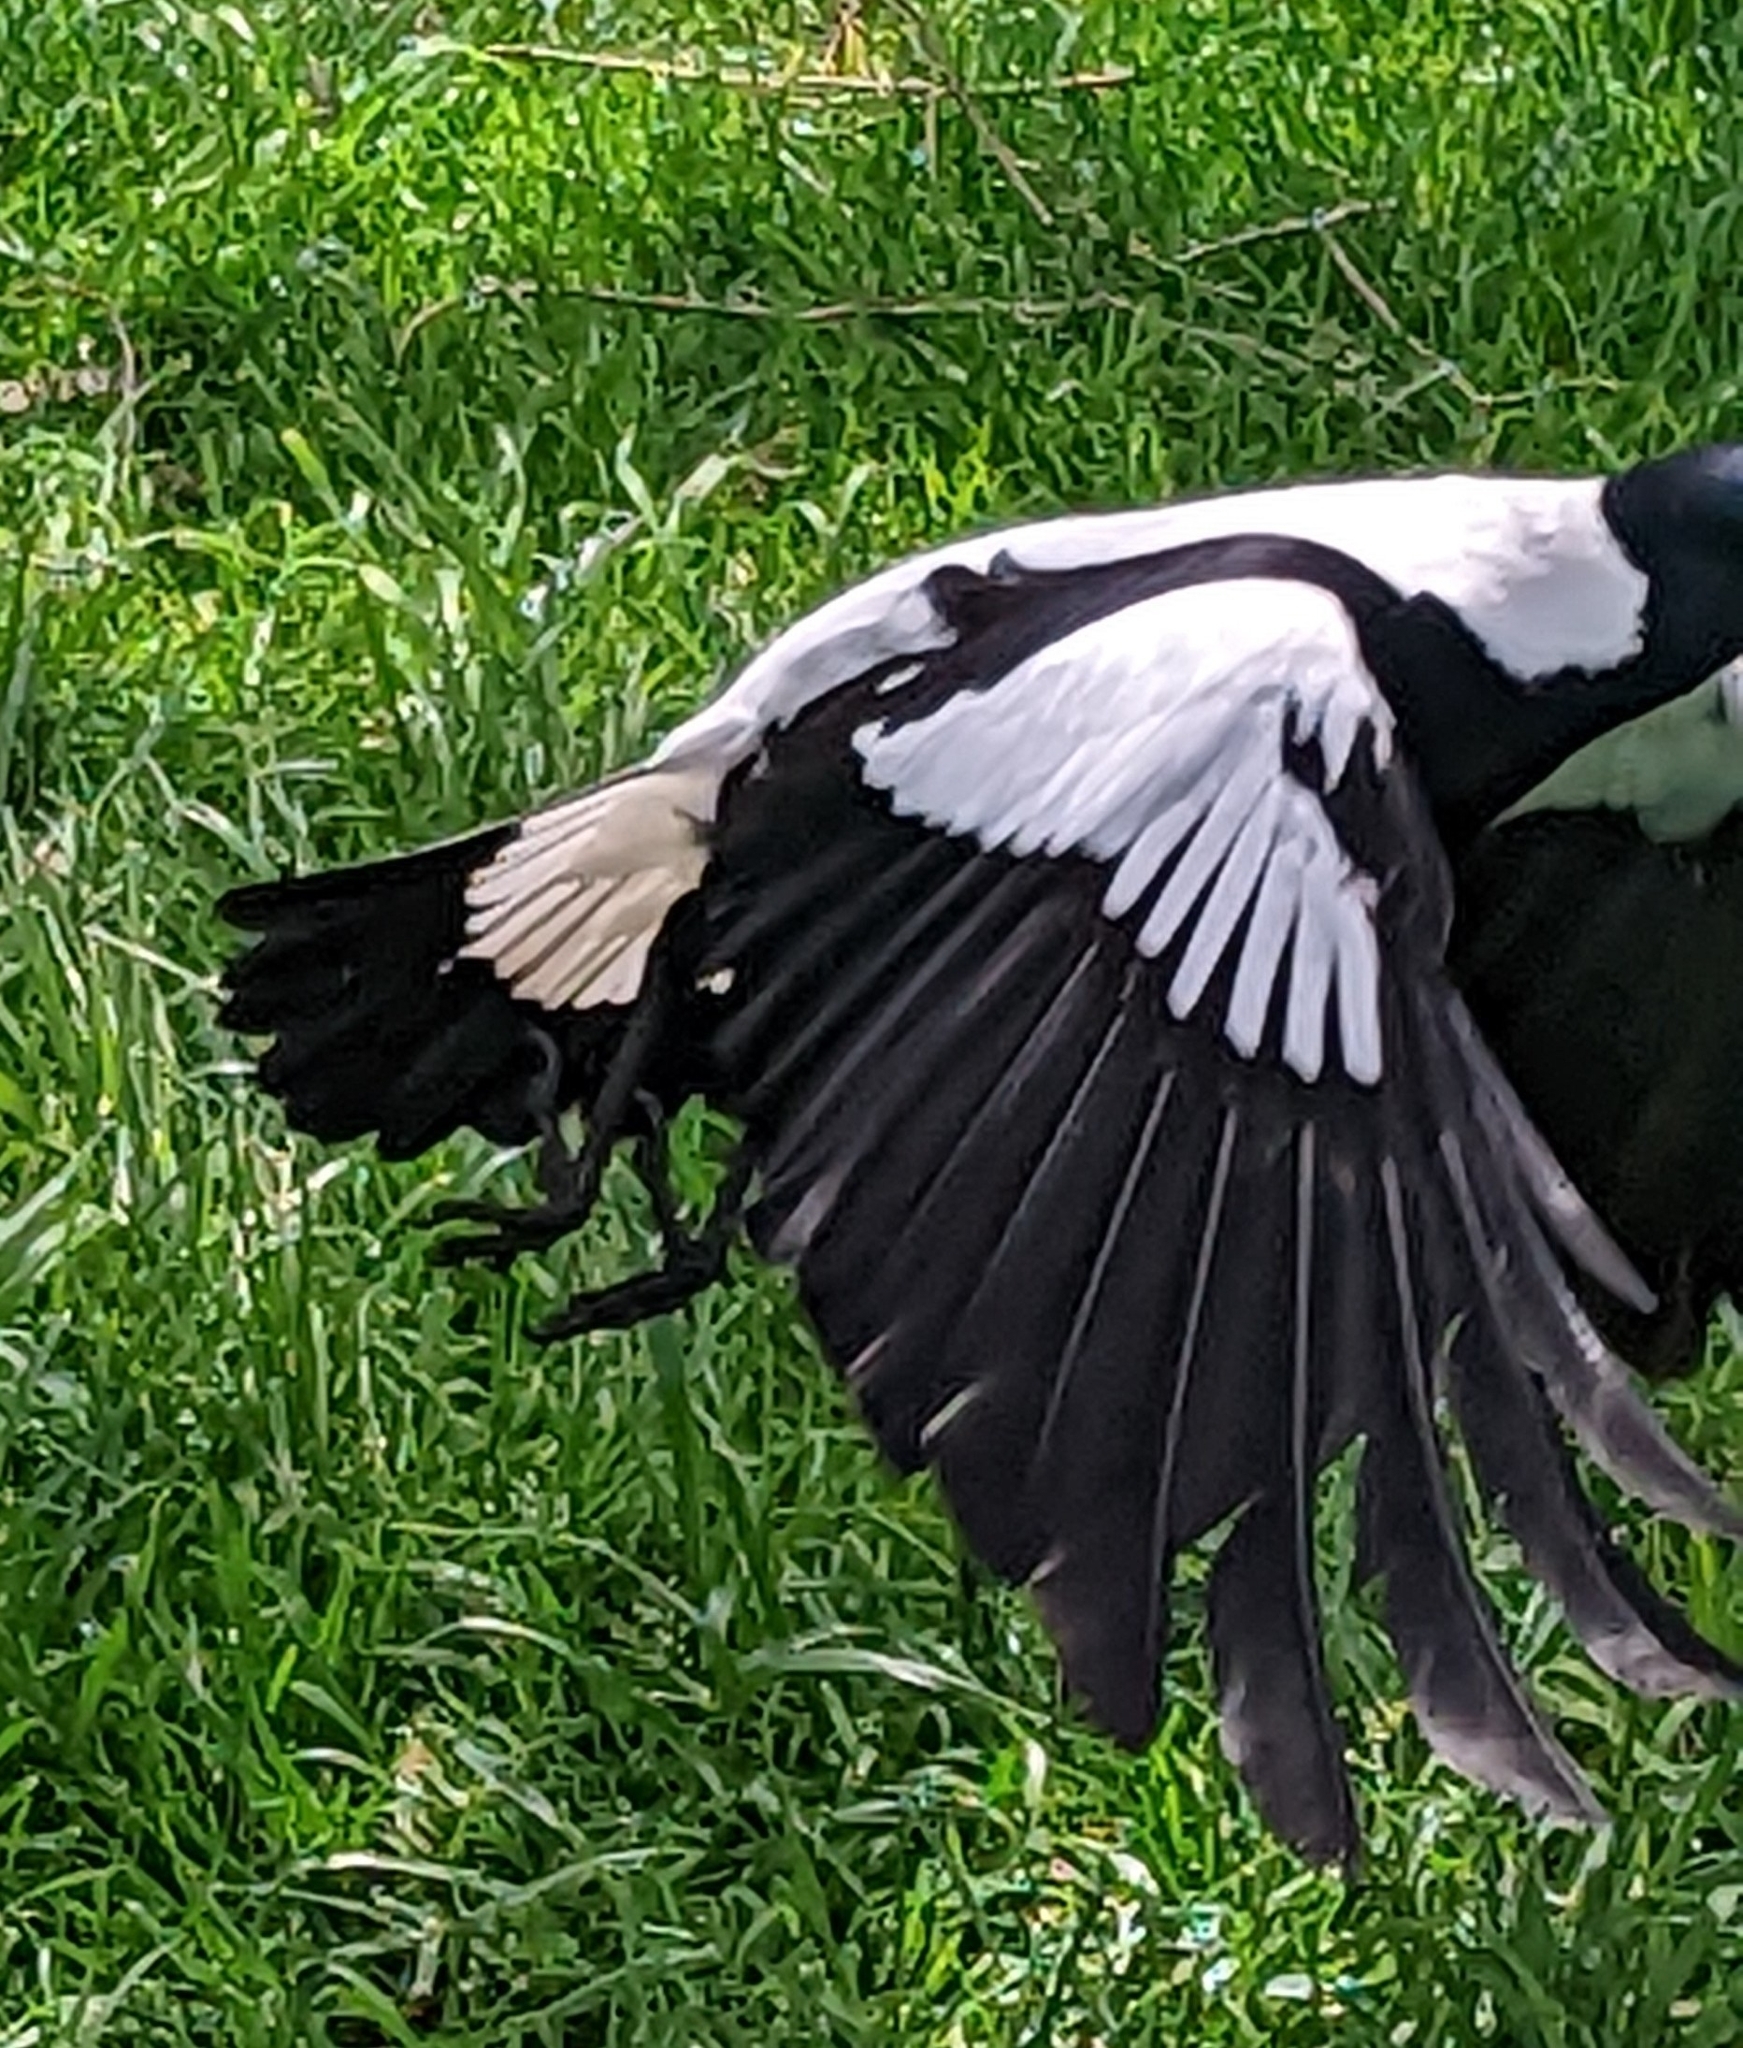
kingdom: Animalia
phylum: Chordata
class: Aves
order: Passeriformes
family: Cracticidae
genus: Gymnorhina
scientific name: Gymnorhina tibicen
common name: Australian magpie
